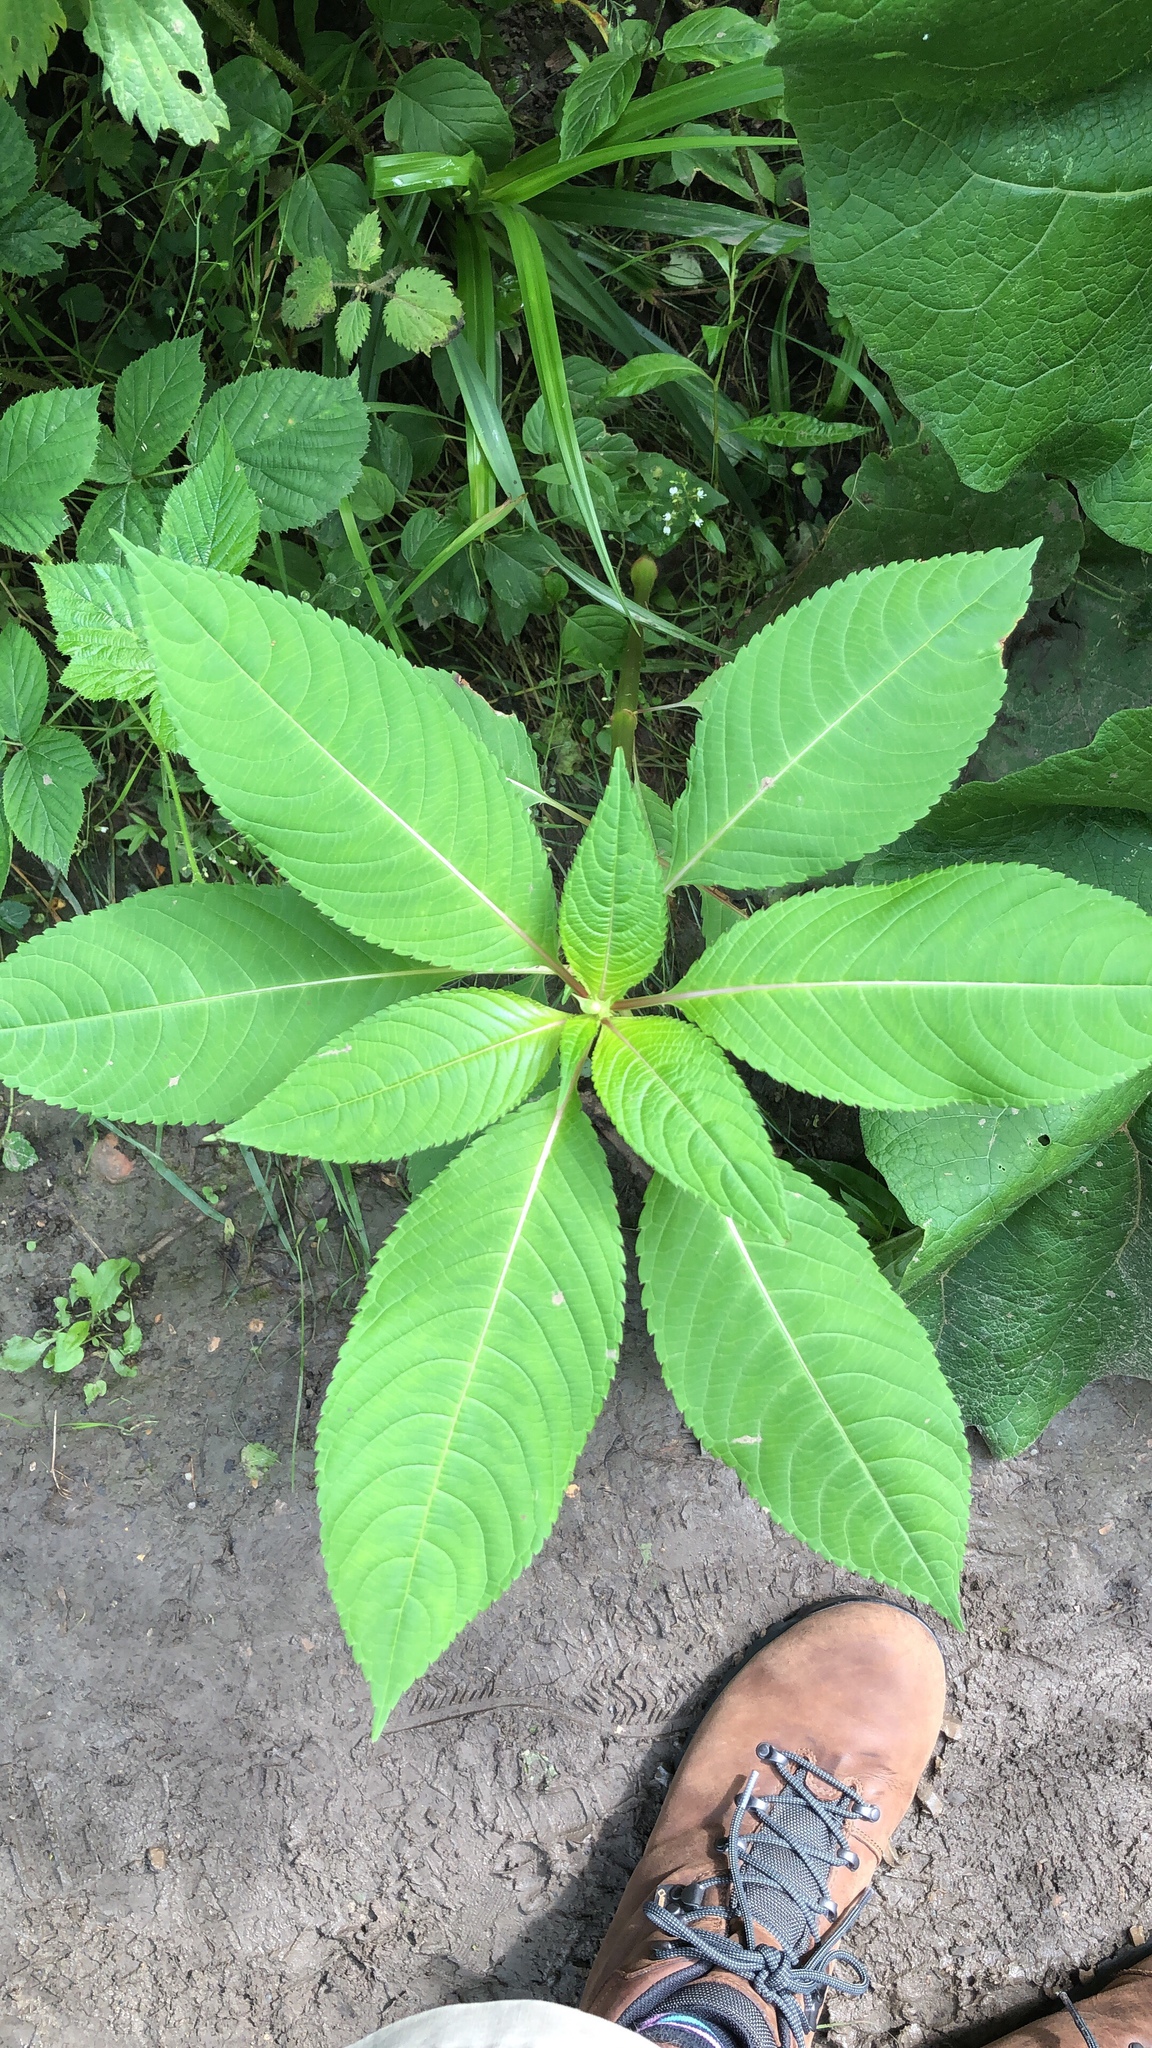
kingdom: Plantae
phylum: Tracheophyta
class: Magnoliopsida
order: Ericales
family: Balsaminaceae
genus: Impatiens
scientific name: Impatiens glandulifera
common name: Himalayan balsam
